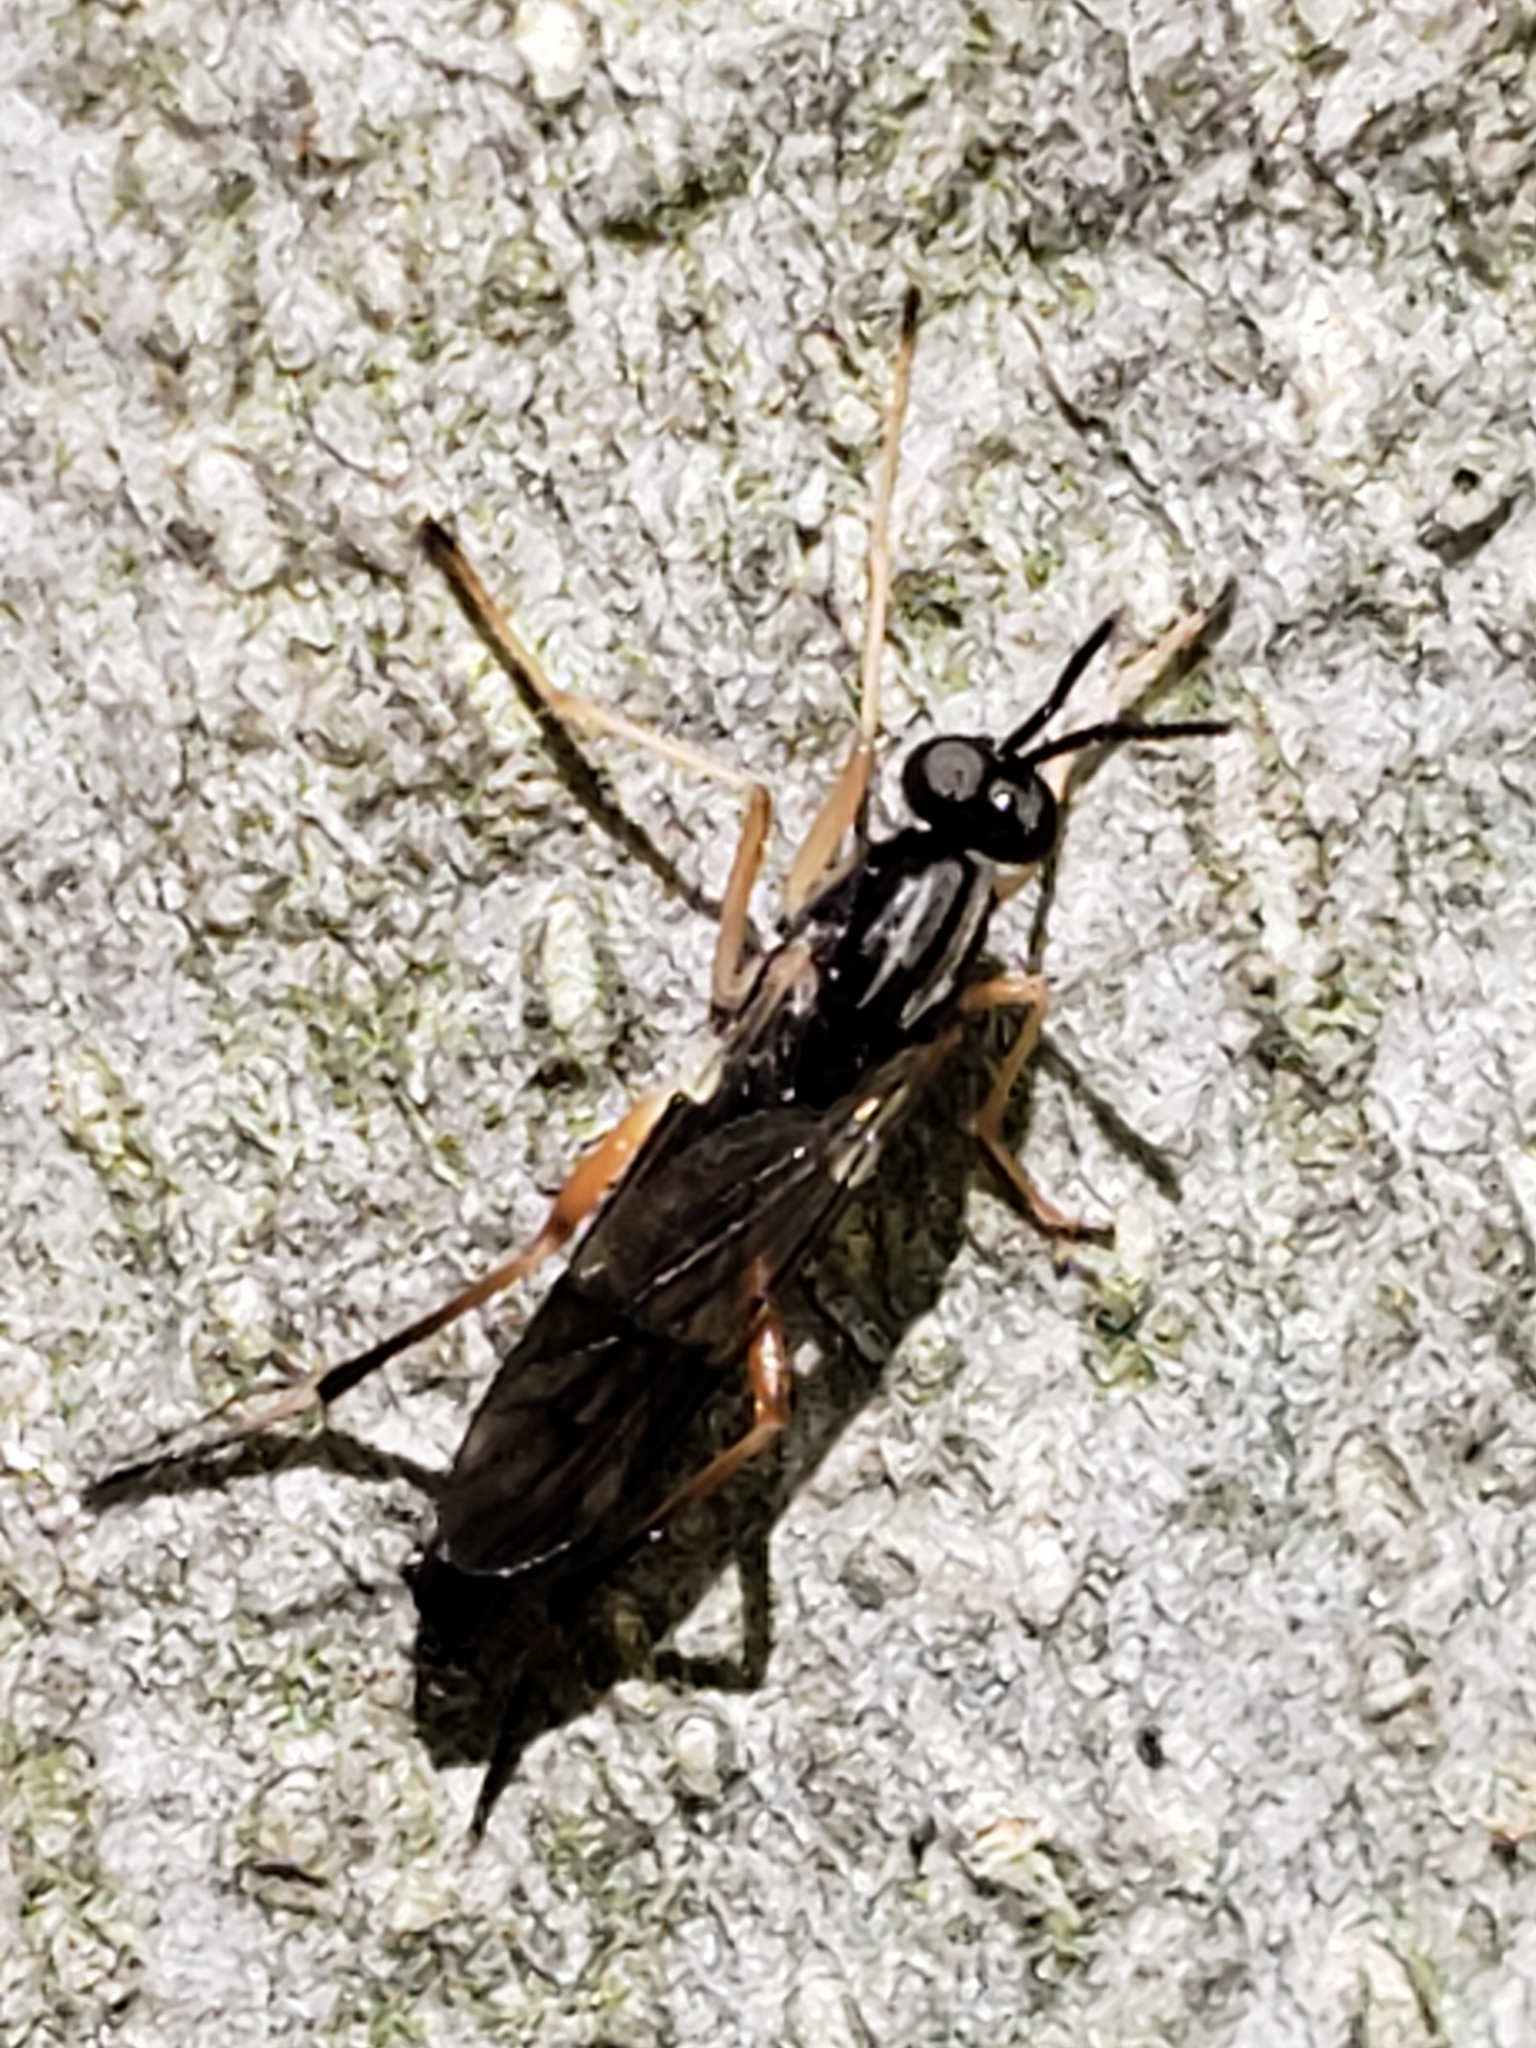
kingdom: Animalia
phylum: Arthropoda
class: Insecta
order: Diptera
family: Xylophagidae
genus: Xylophagus
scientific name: Xylophagus reflectens
